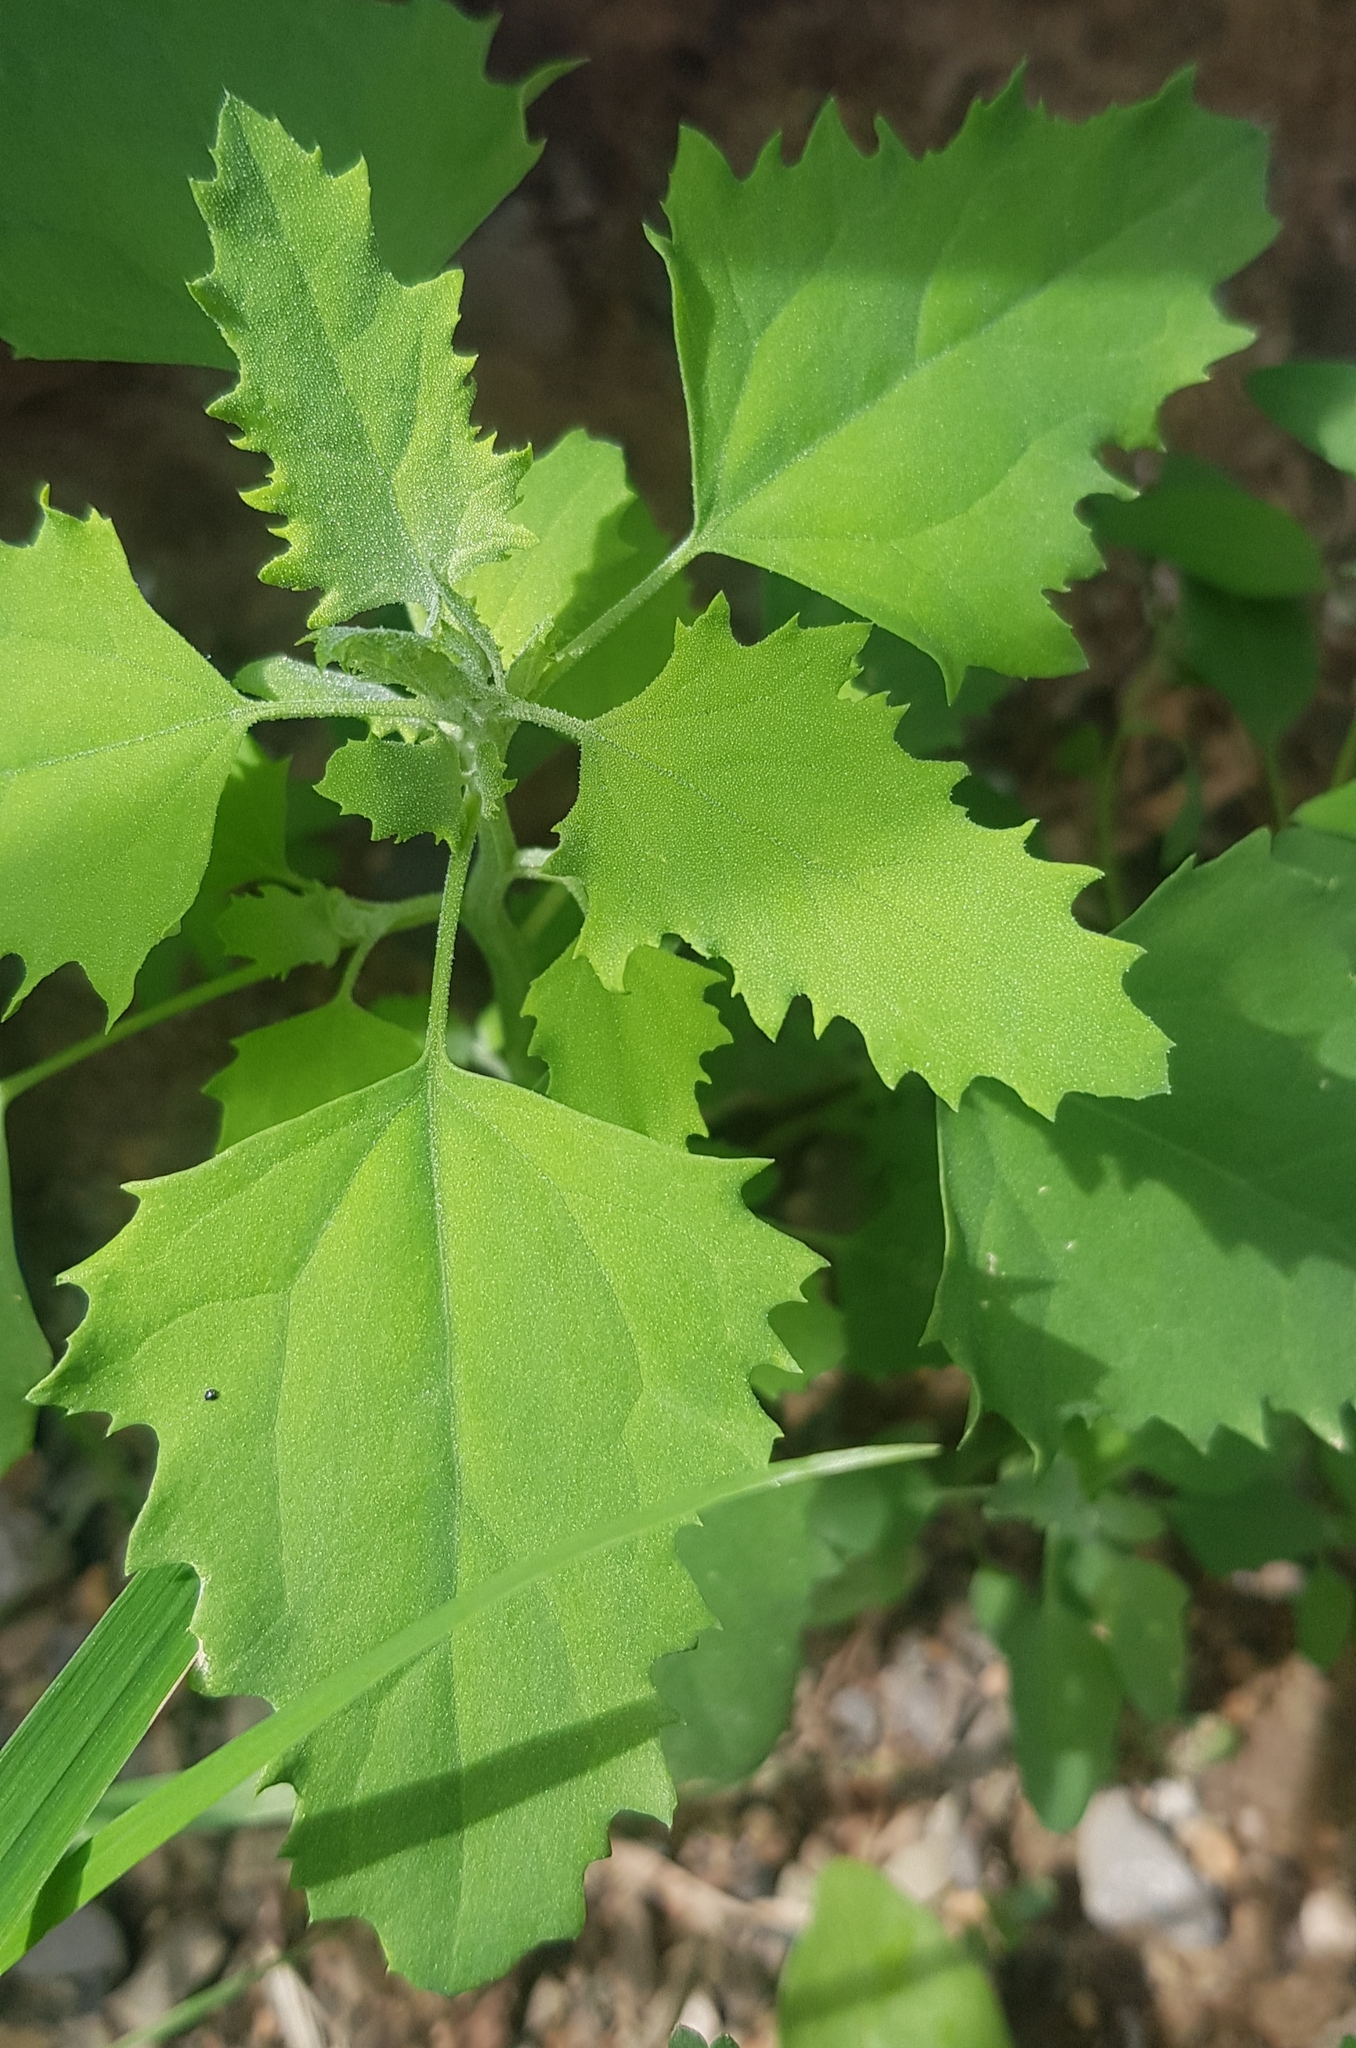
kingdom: Plantae
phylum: Tracheophyta
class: Magnoliopsida
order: Caryophyllales
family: Amaranthaceae
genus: Chenopodium
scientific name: Chenopodium album
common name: Fat-hen
